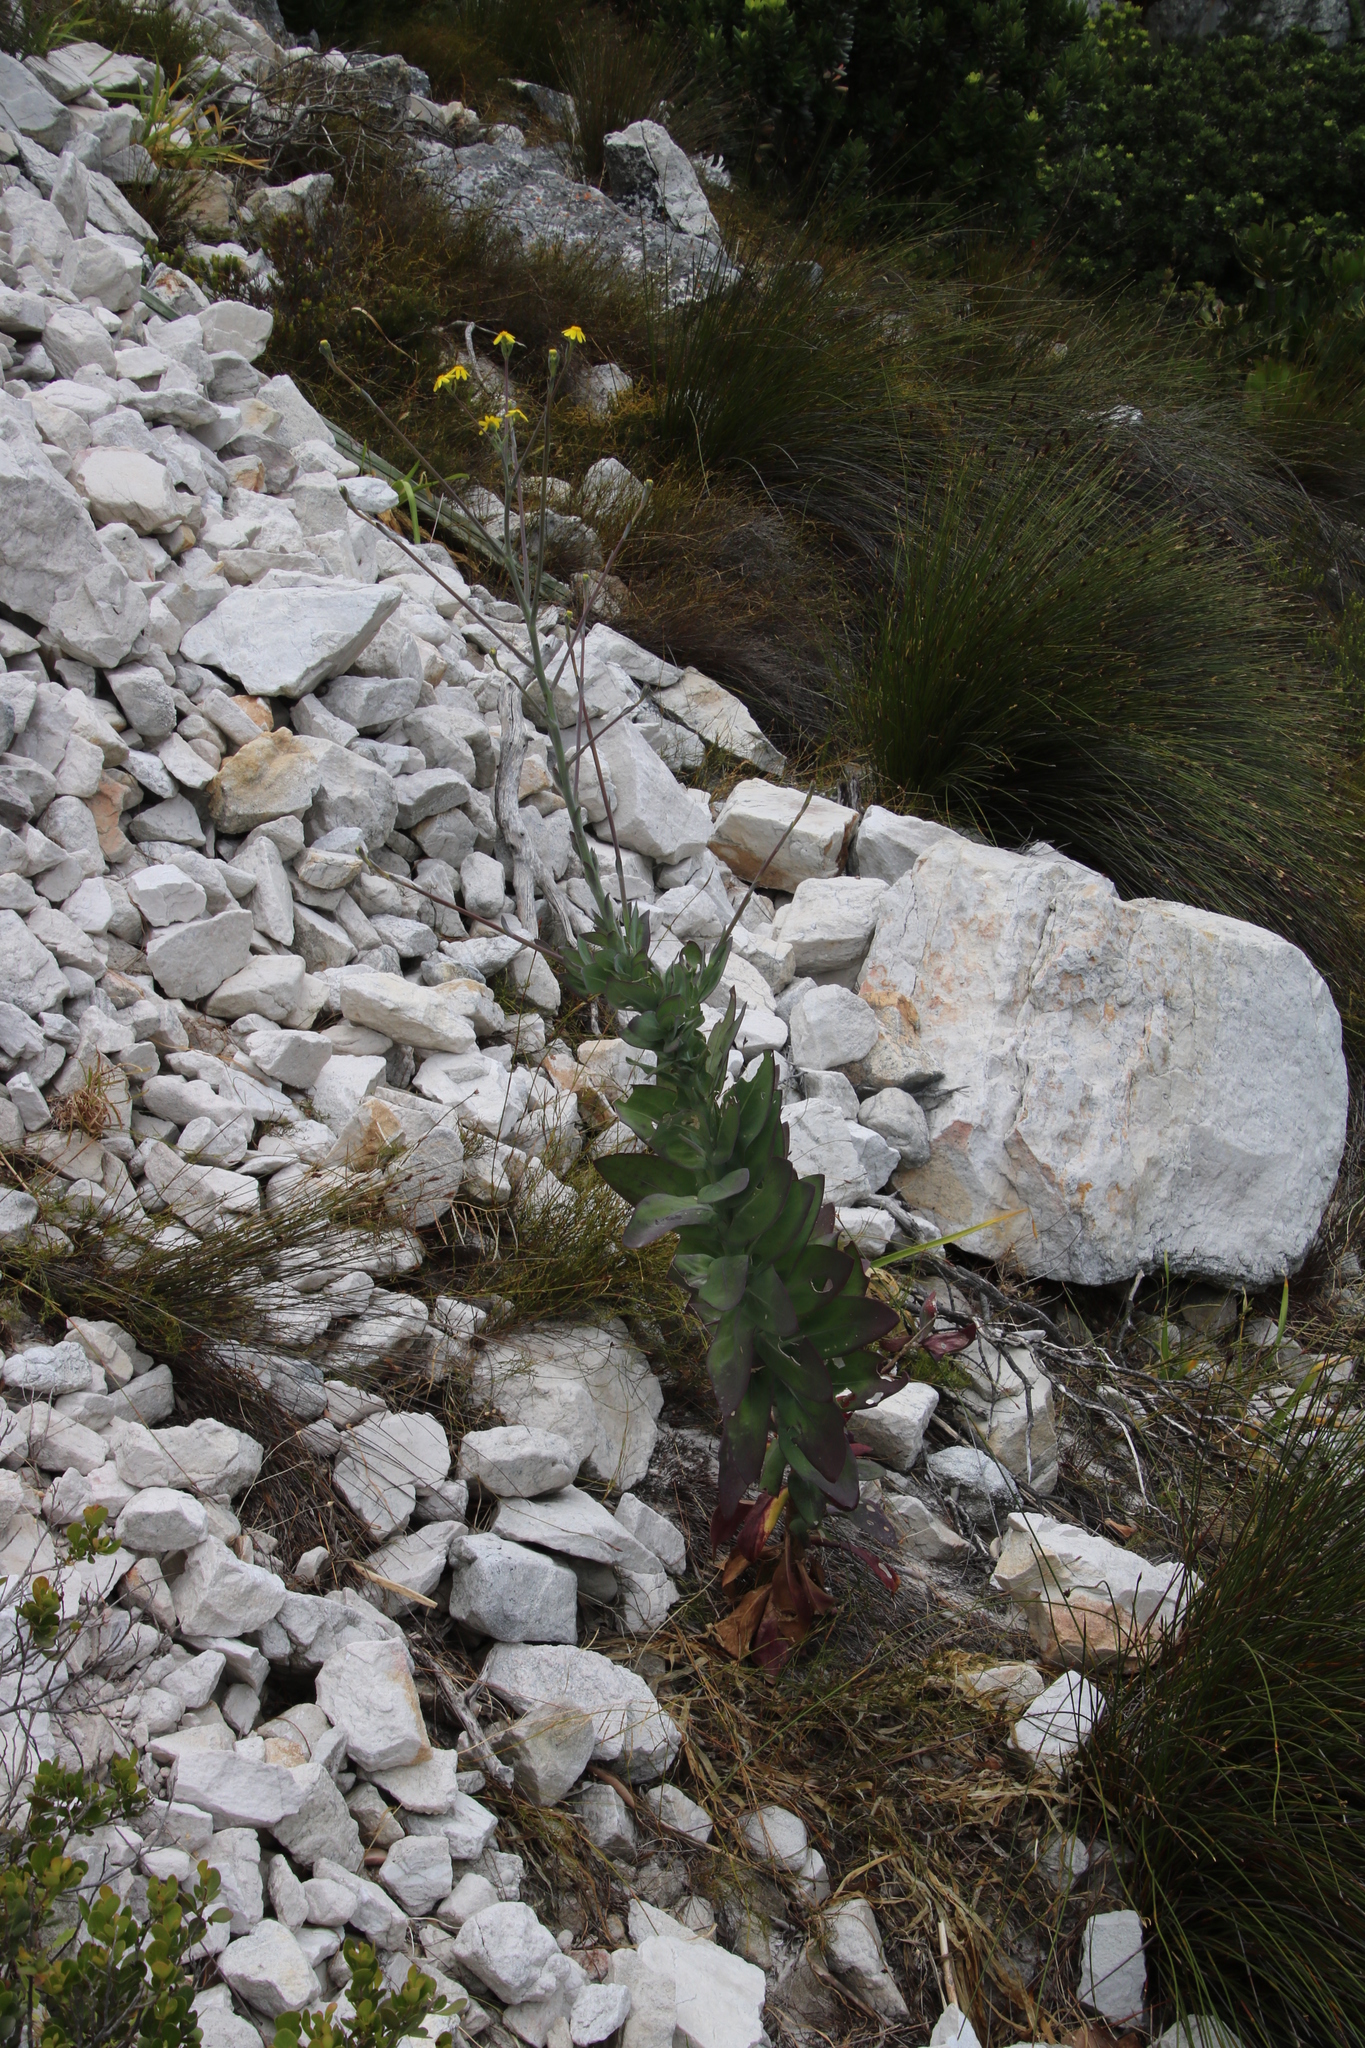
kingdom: Plantae
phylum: Tracheophyta
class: Magnoliopsida
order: Asterales
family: Asteraceae
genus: Othonna
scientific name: Othonna quinquedentata
